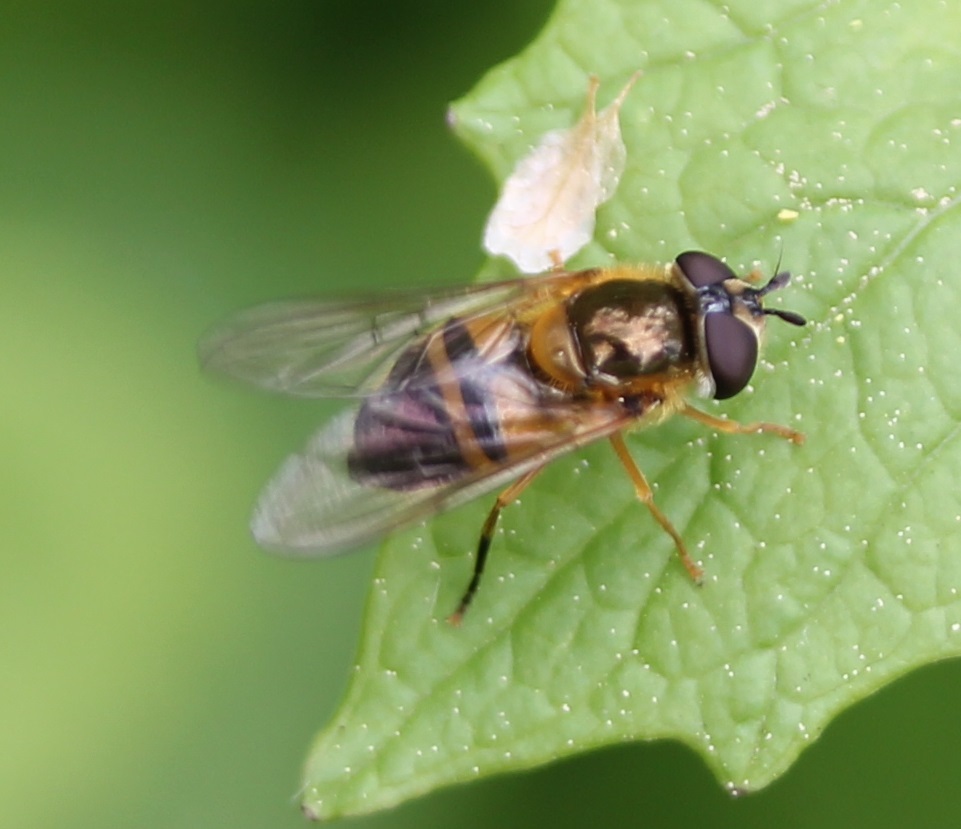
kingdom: Animalia
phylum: Arthropoda
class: Insecta
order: Diptera
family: Syrphidae
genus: Epistrophe
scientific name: Epistrophe eligans
